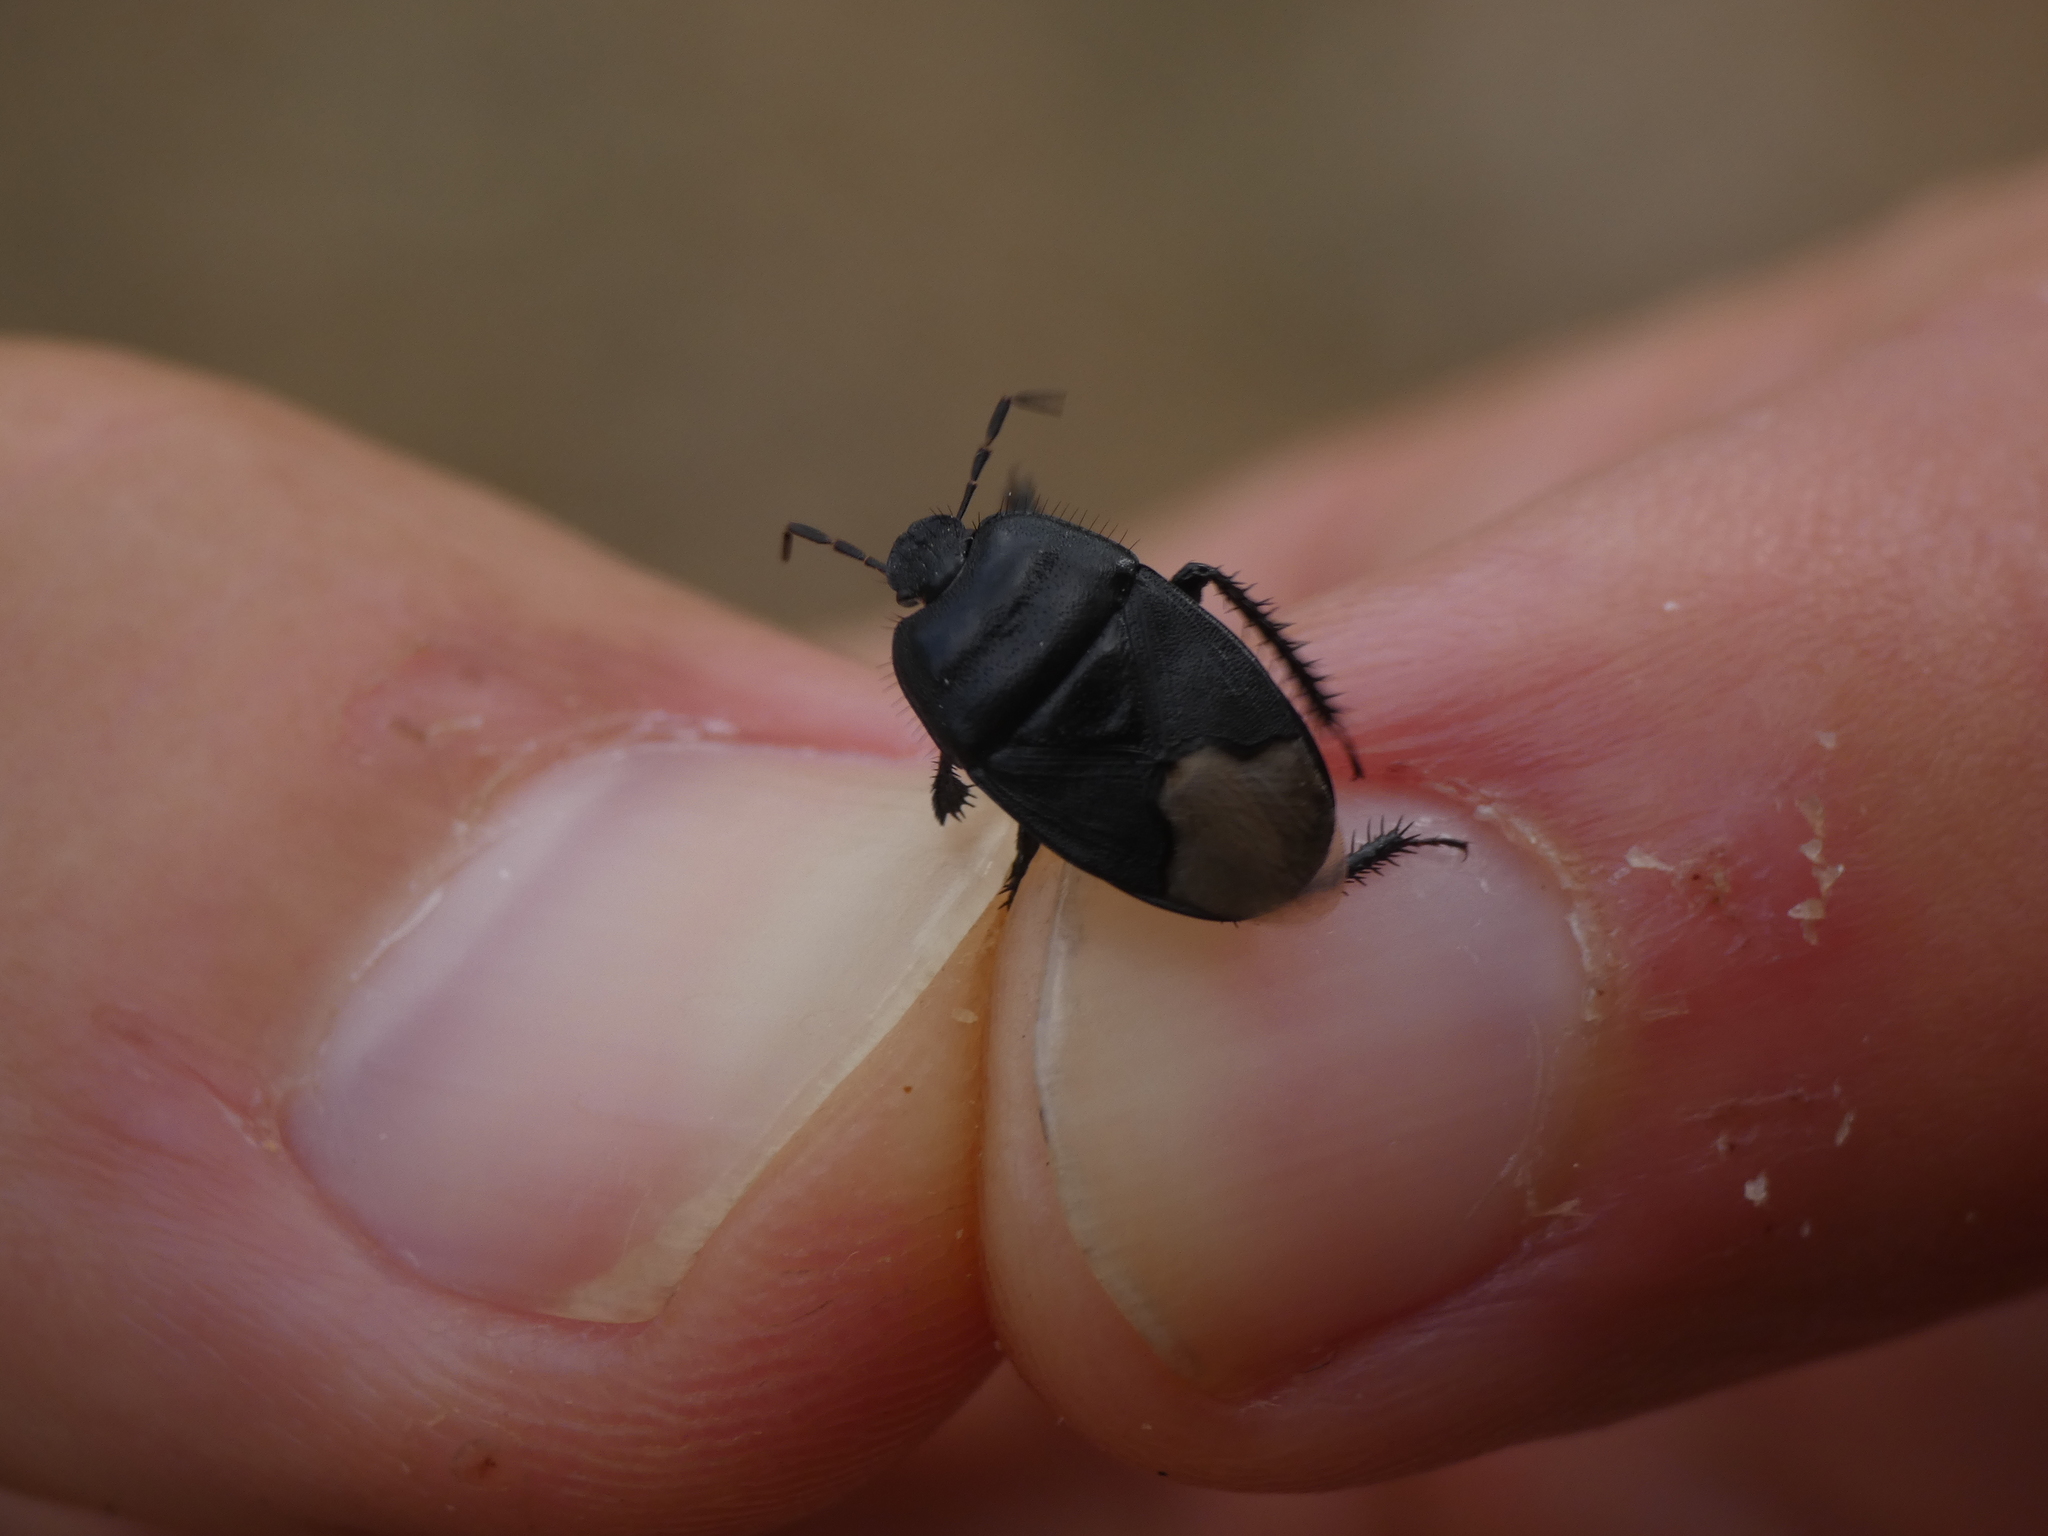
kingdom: Animalia
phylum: Arthropoda
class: Insecta
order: Hemiptera
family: Cydnidae
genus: Cydnus
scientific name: Cydnus aterrimus
